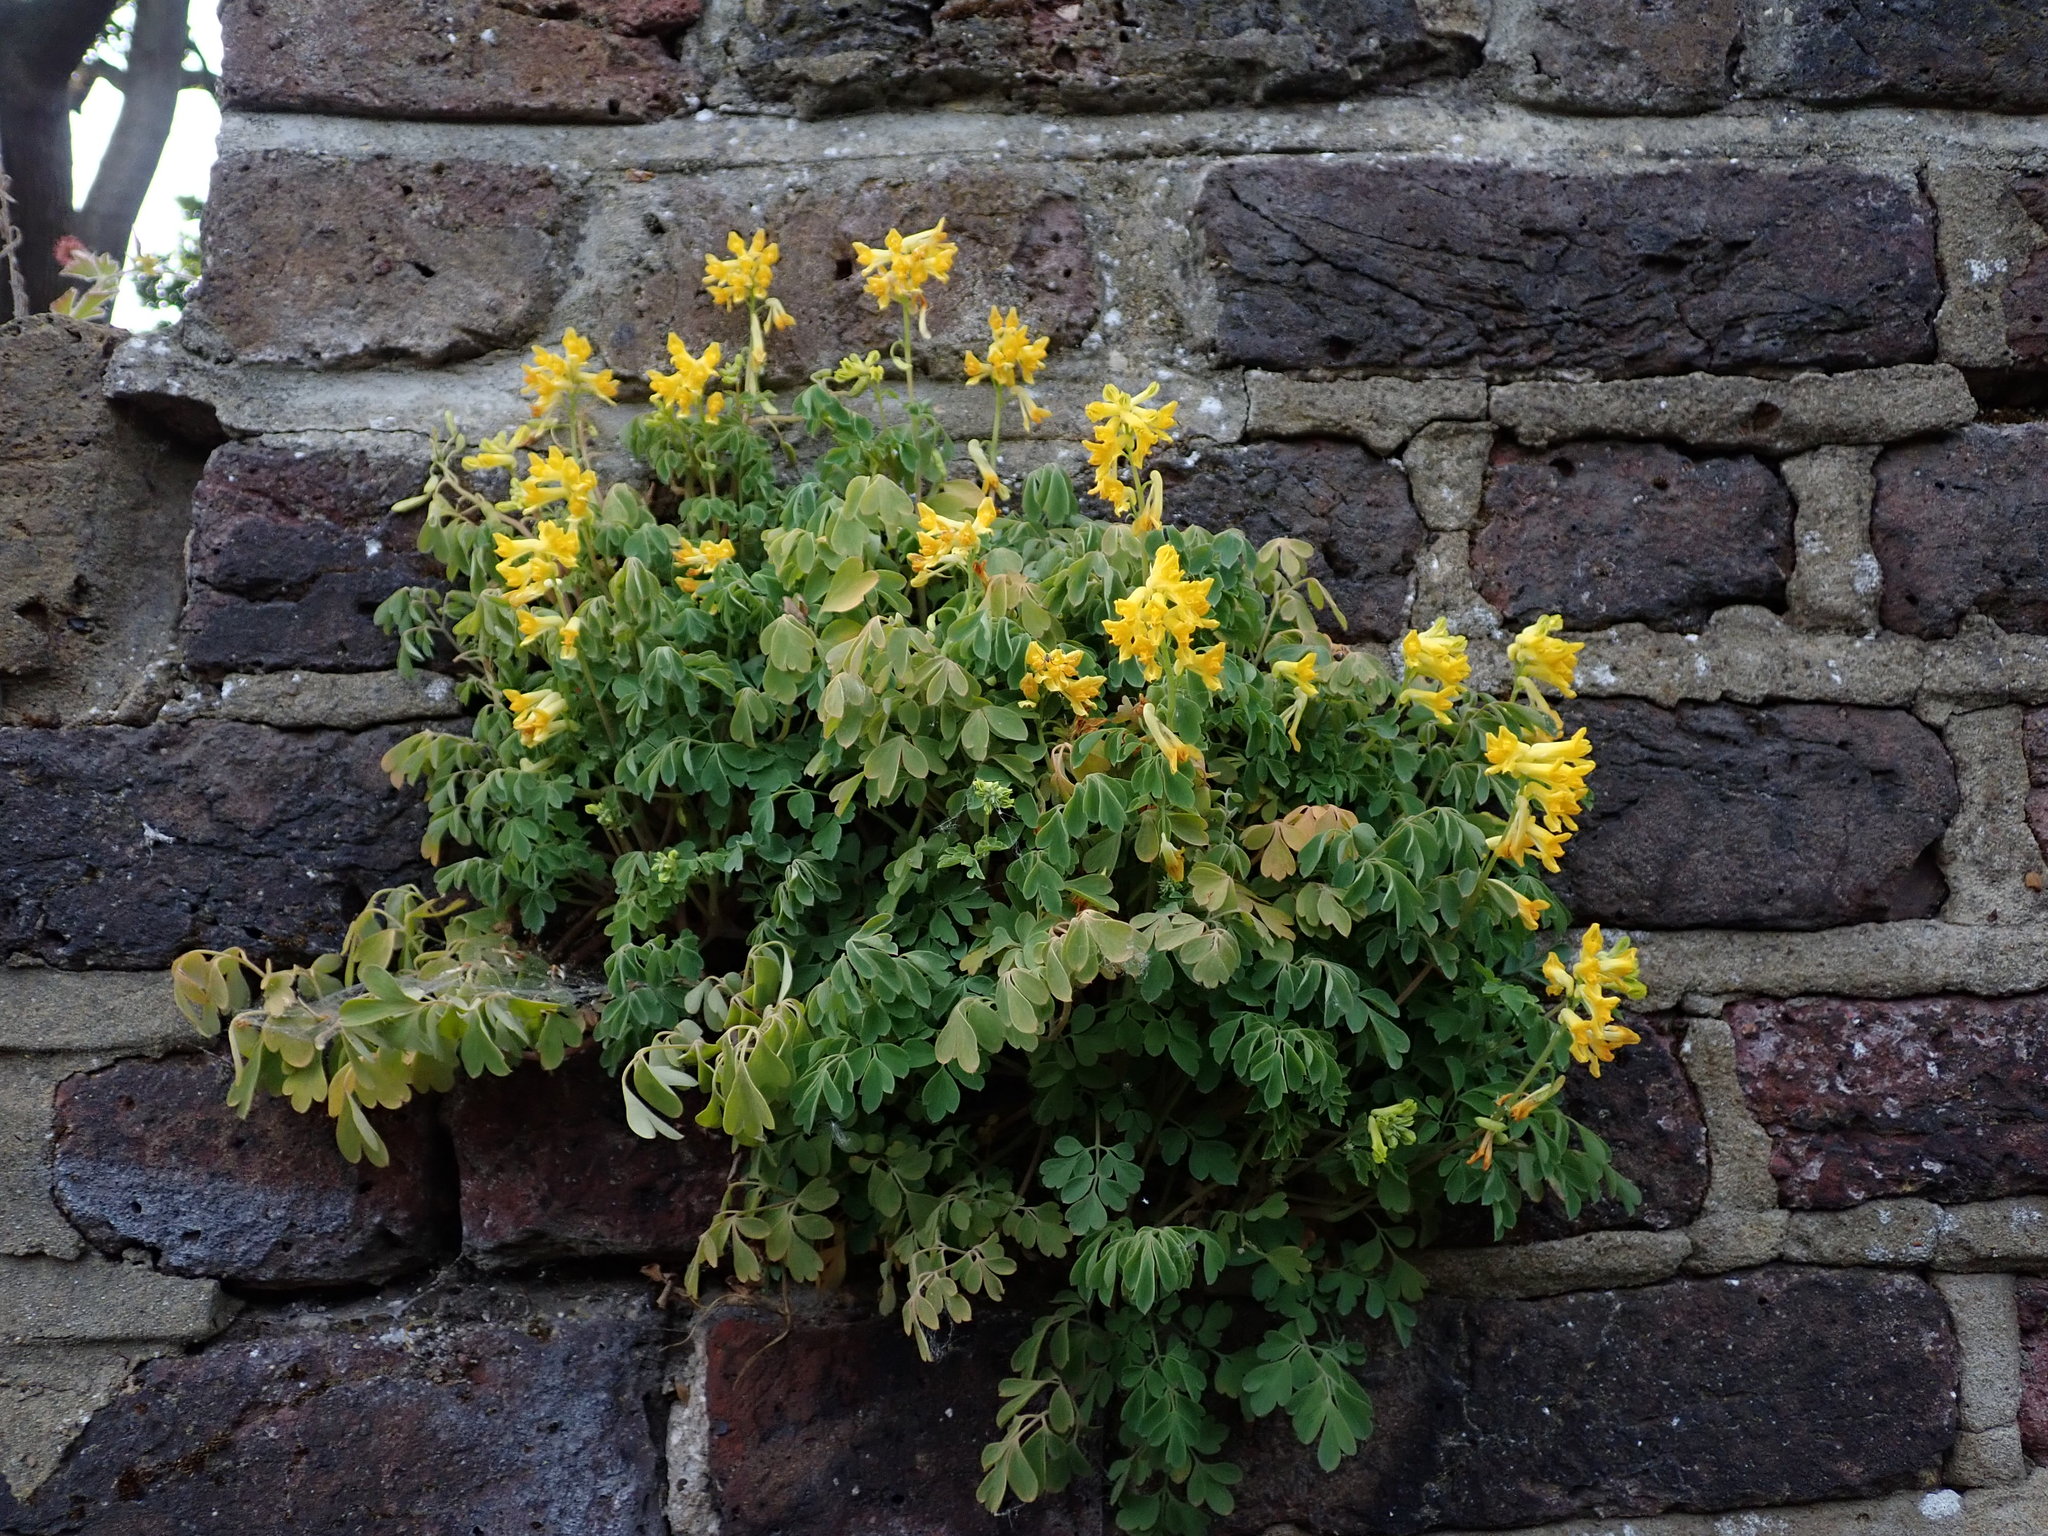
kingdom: Plantae
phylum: Tracheophyta
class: Magnoliopsida
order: Ranunculales
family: Papaveraceae
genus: Pseudofumaria
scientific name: Pseudofumaria lutea
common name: Yellow corydalis
